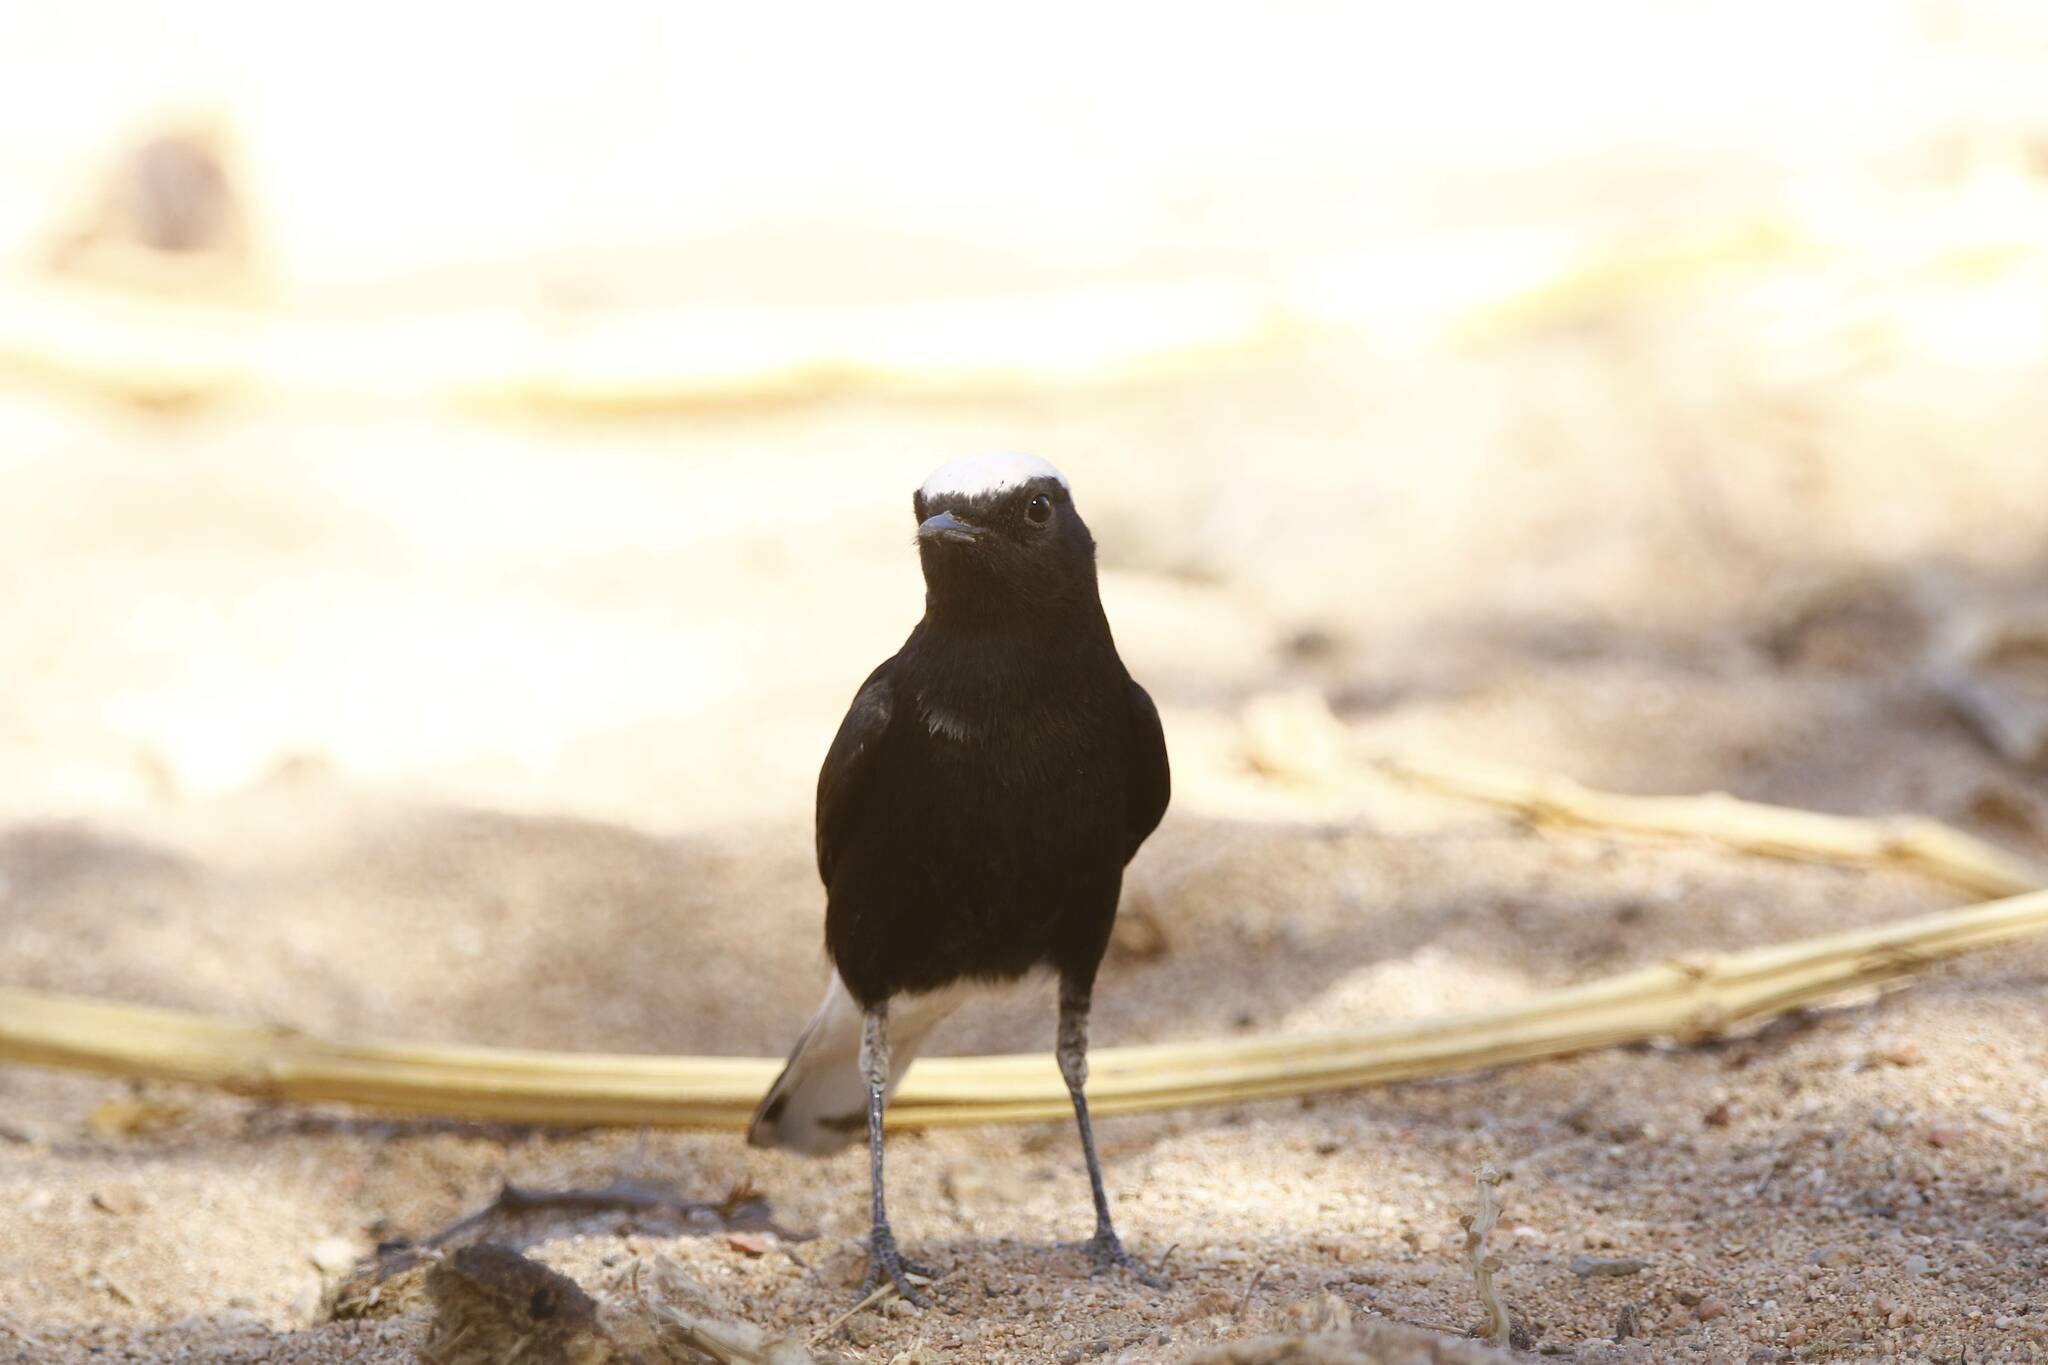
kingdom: Animalia
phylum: Chordata
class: Aves
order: Passeriformes
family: Muscicapidae
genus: Oenanthe
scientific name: Oenanthe leucopyga
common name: White-crowned wheatear
